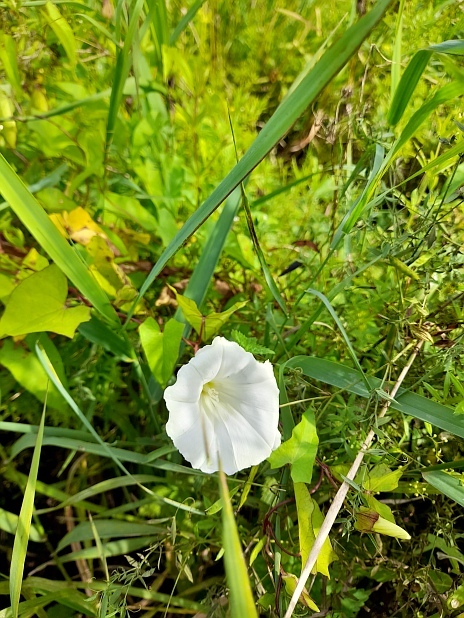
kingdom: Plantae
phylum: Tracheophyta
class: Magnoliopsida
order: Solanales
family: Convolvulaceae
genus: Calystegia
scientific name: Calystegia sepium
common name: Hedge bindweed
